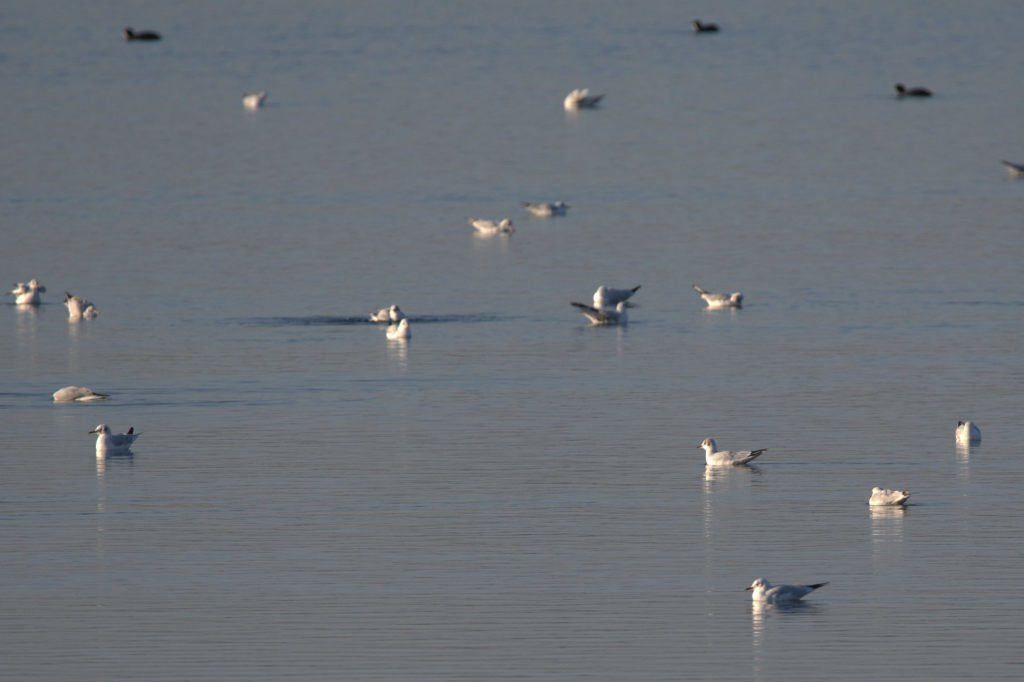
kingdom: Animalia
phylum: Chordata
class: Aves
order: Charadriiformes
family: Laridae
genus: Chroicocephalus
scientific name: Chroicocephalus ridibundus
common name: Black-headed gull
